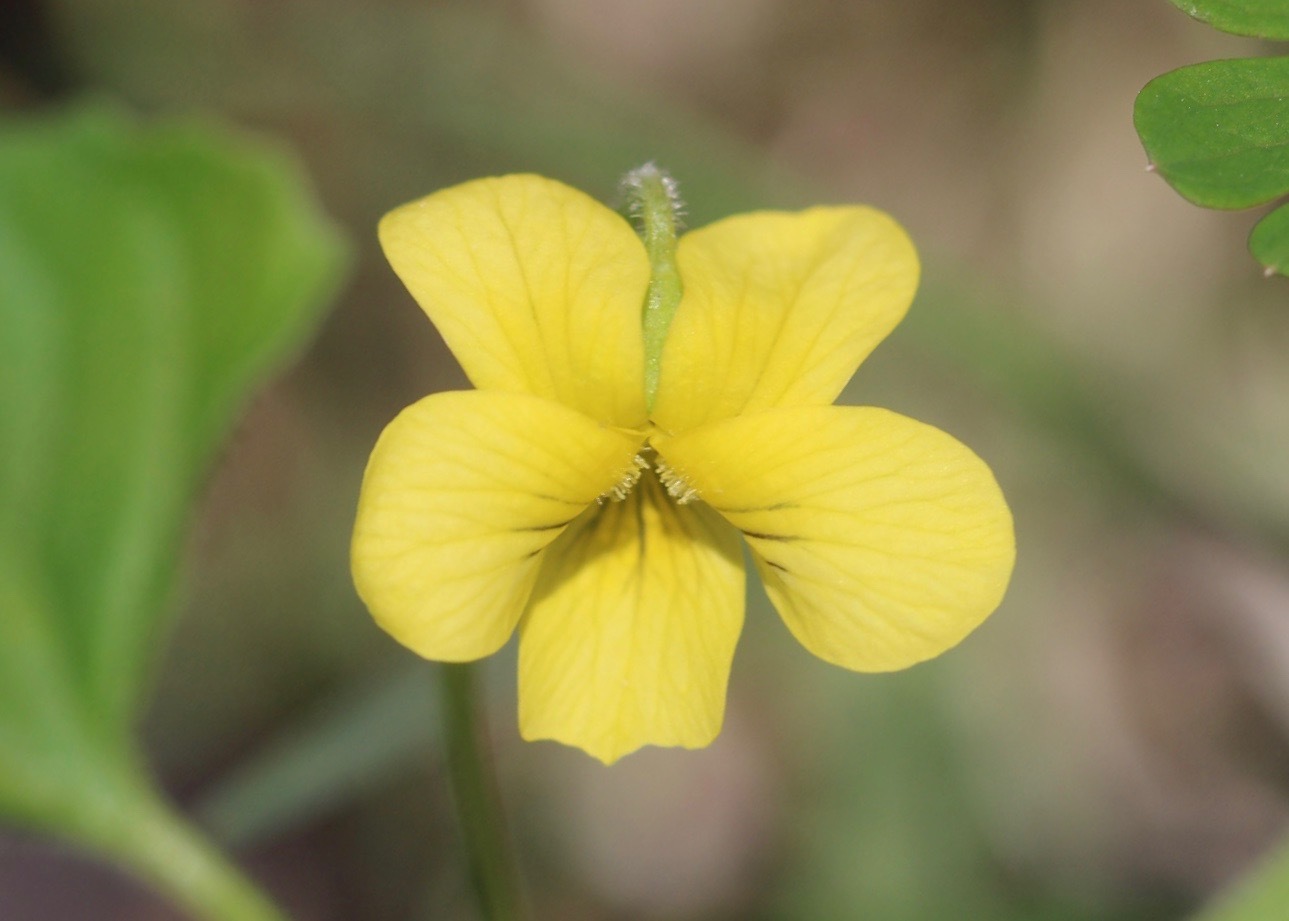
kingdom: Plantae
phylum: Tracheophyta
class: Magnoliopsida
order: Malpighiales
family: Violaceae
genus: Viola
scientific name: Viola eriocarpa
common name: Smooth yellow violet
